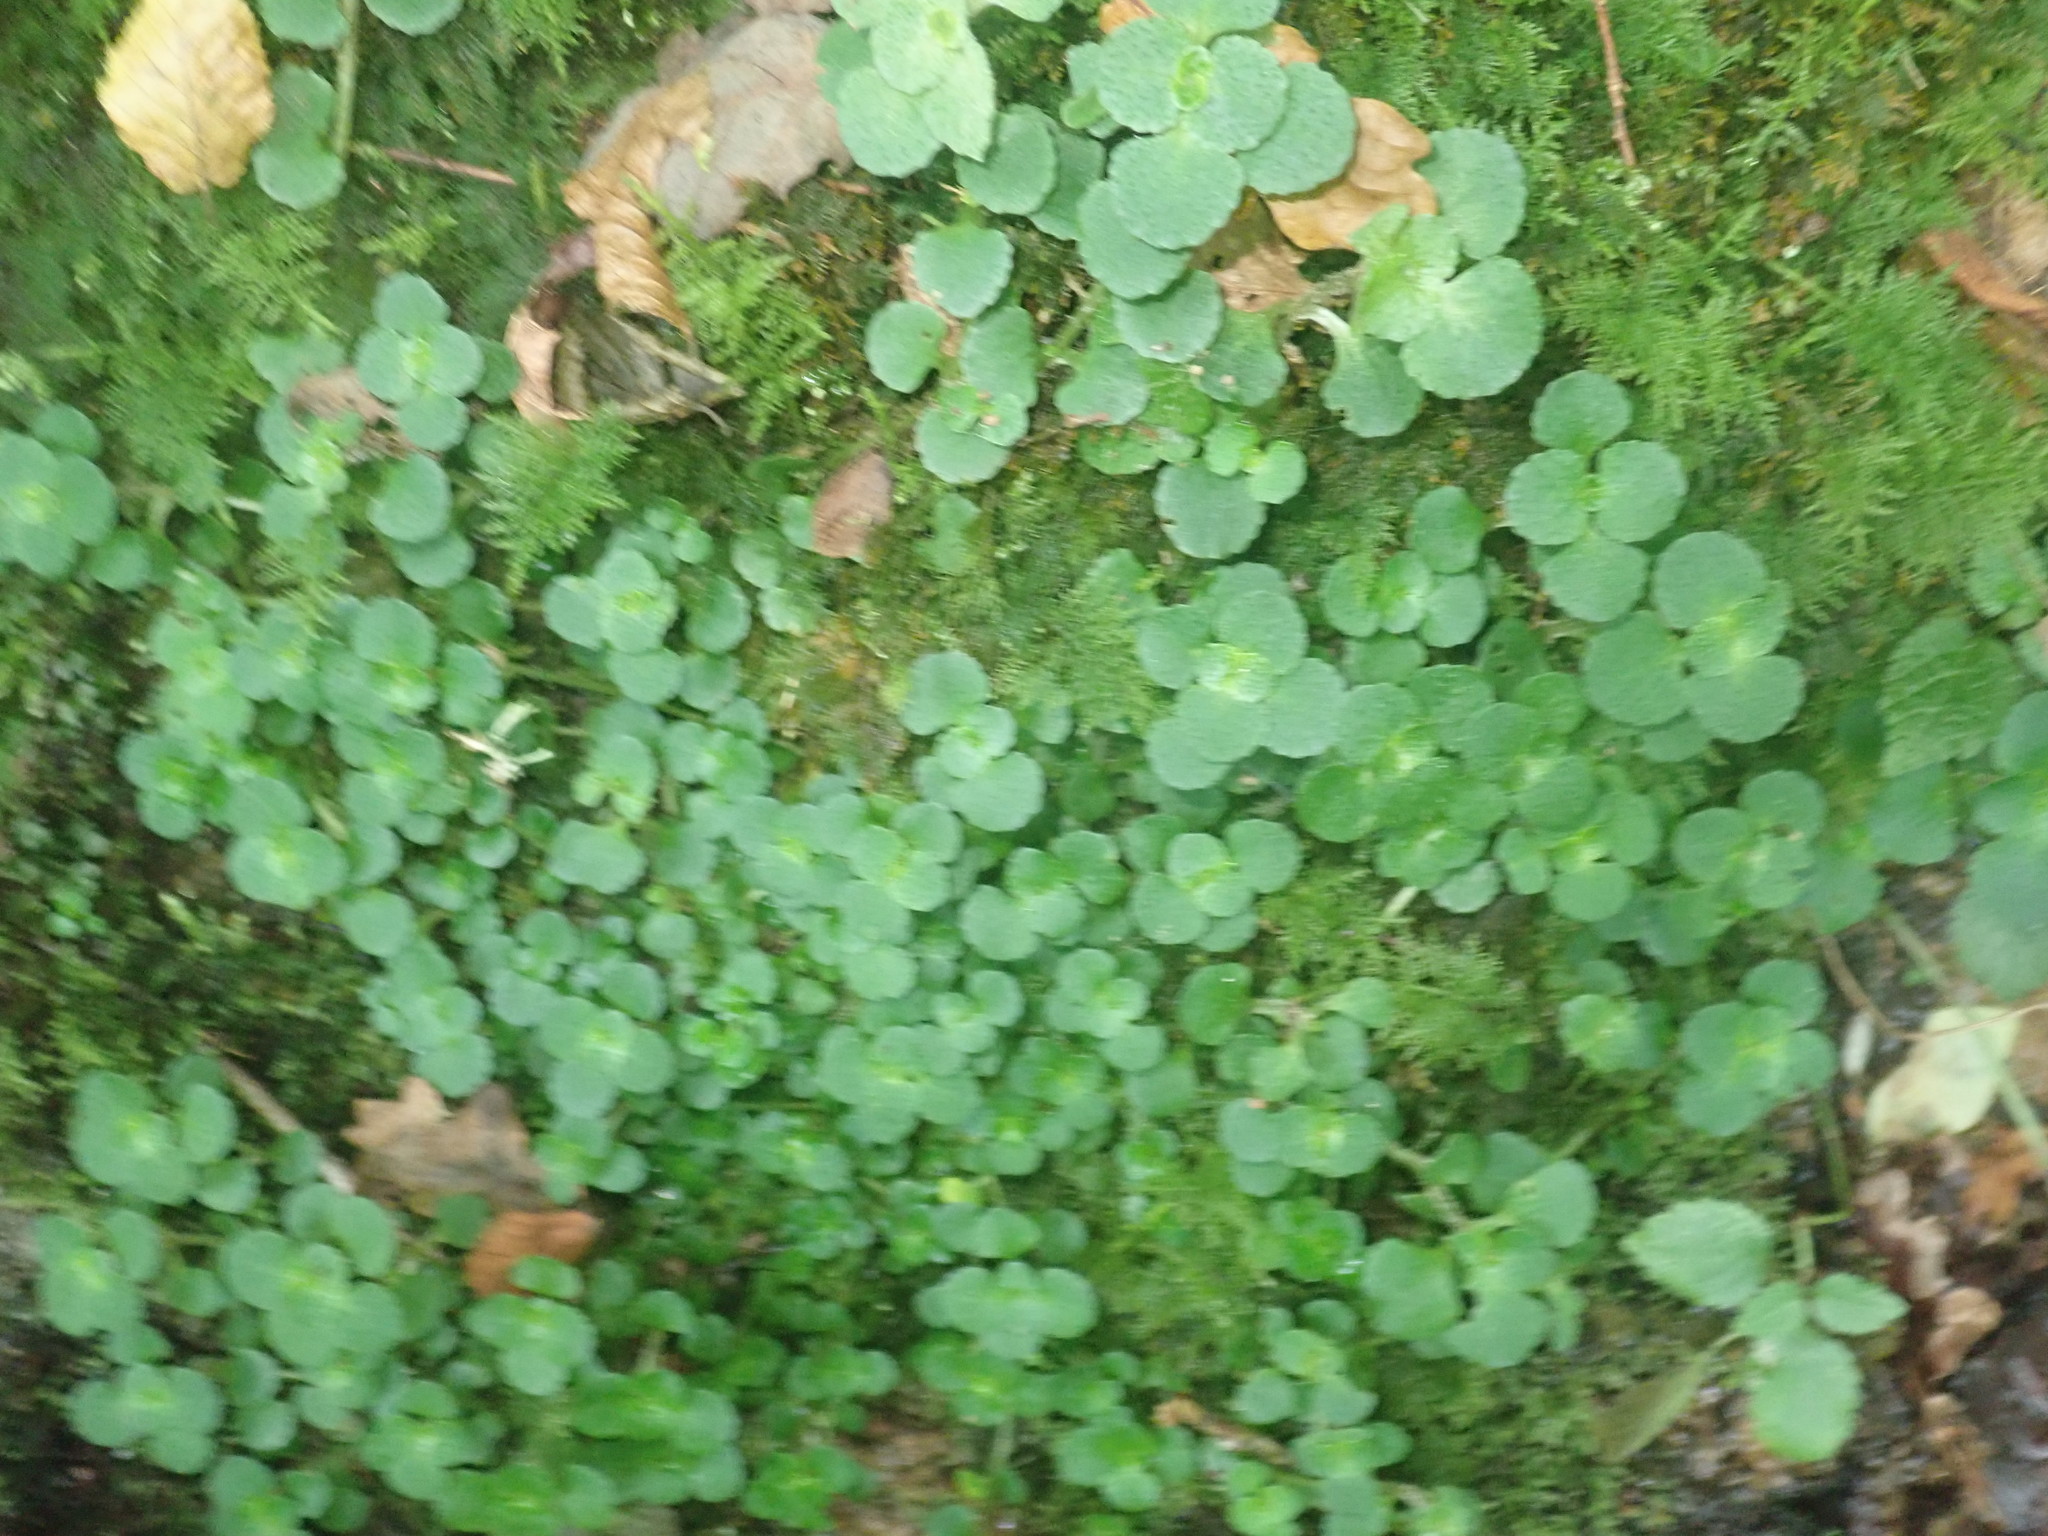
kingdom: Plantae
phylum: Tracheophyta
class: Magnoliopsida
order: Saxifragales
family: Saxifragaceae
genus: Chrysosplenium
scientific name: Chrysosplenium oppositifolium
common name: Opposite-leaved golden-saxifrage
